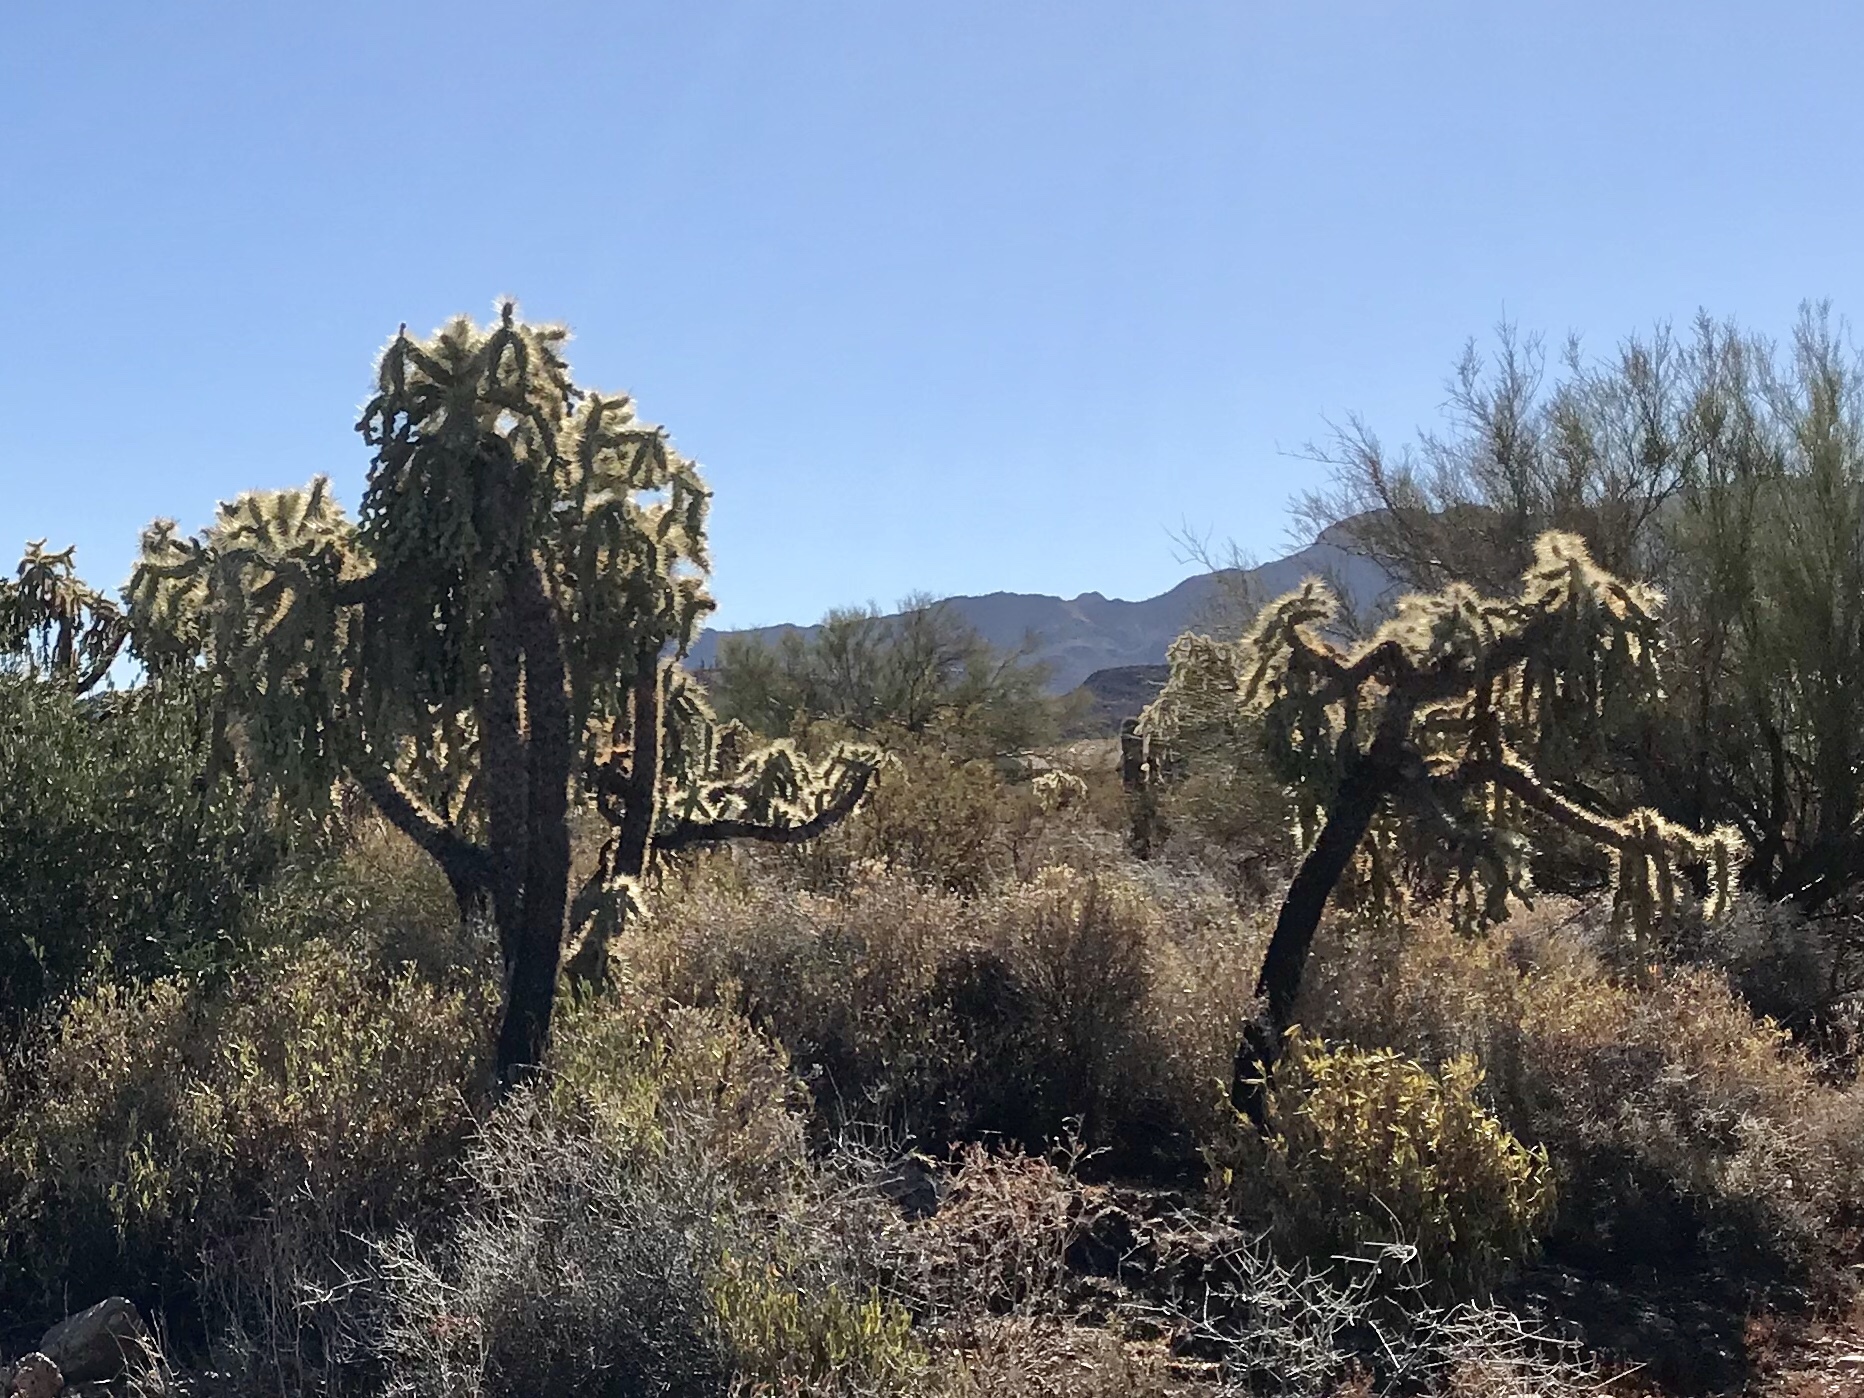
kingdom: Plantae
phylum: Tracheophyta
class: Magnoliopsida
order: Caryophyllales
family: Cactaceae
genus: Cylindropuntia
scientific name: Cylindropuntia fulgida
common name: Jumping cholla
